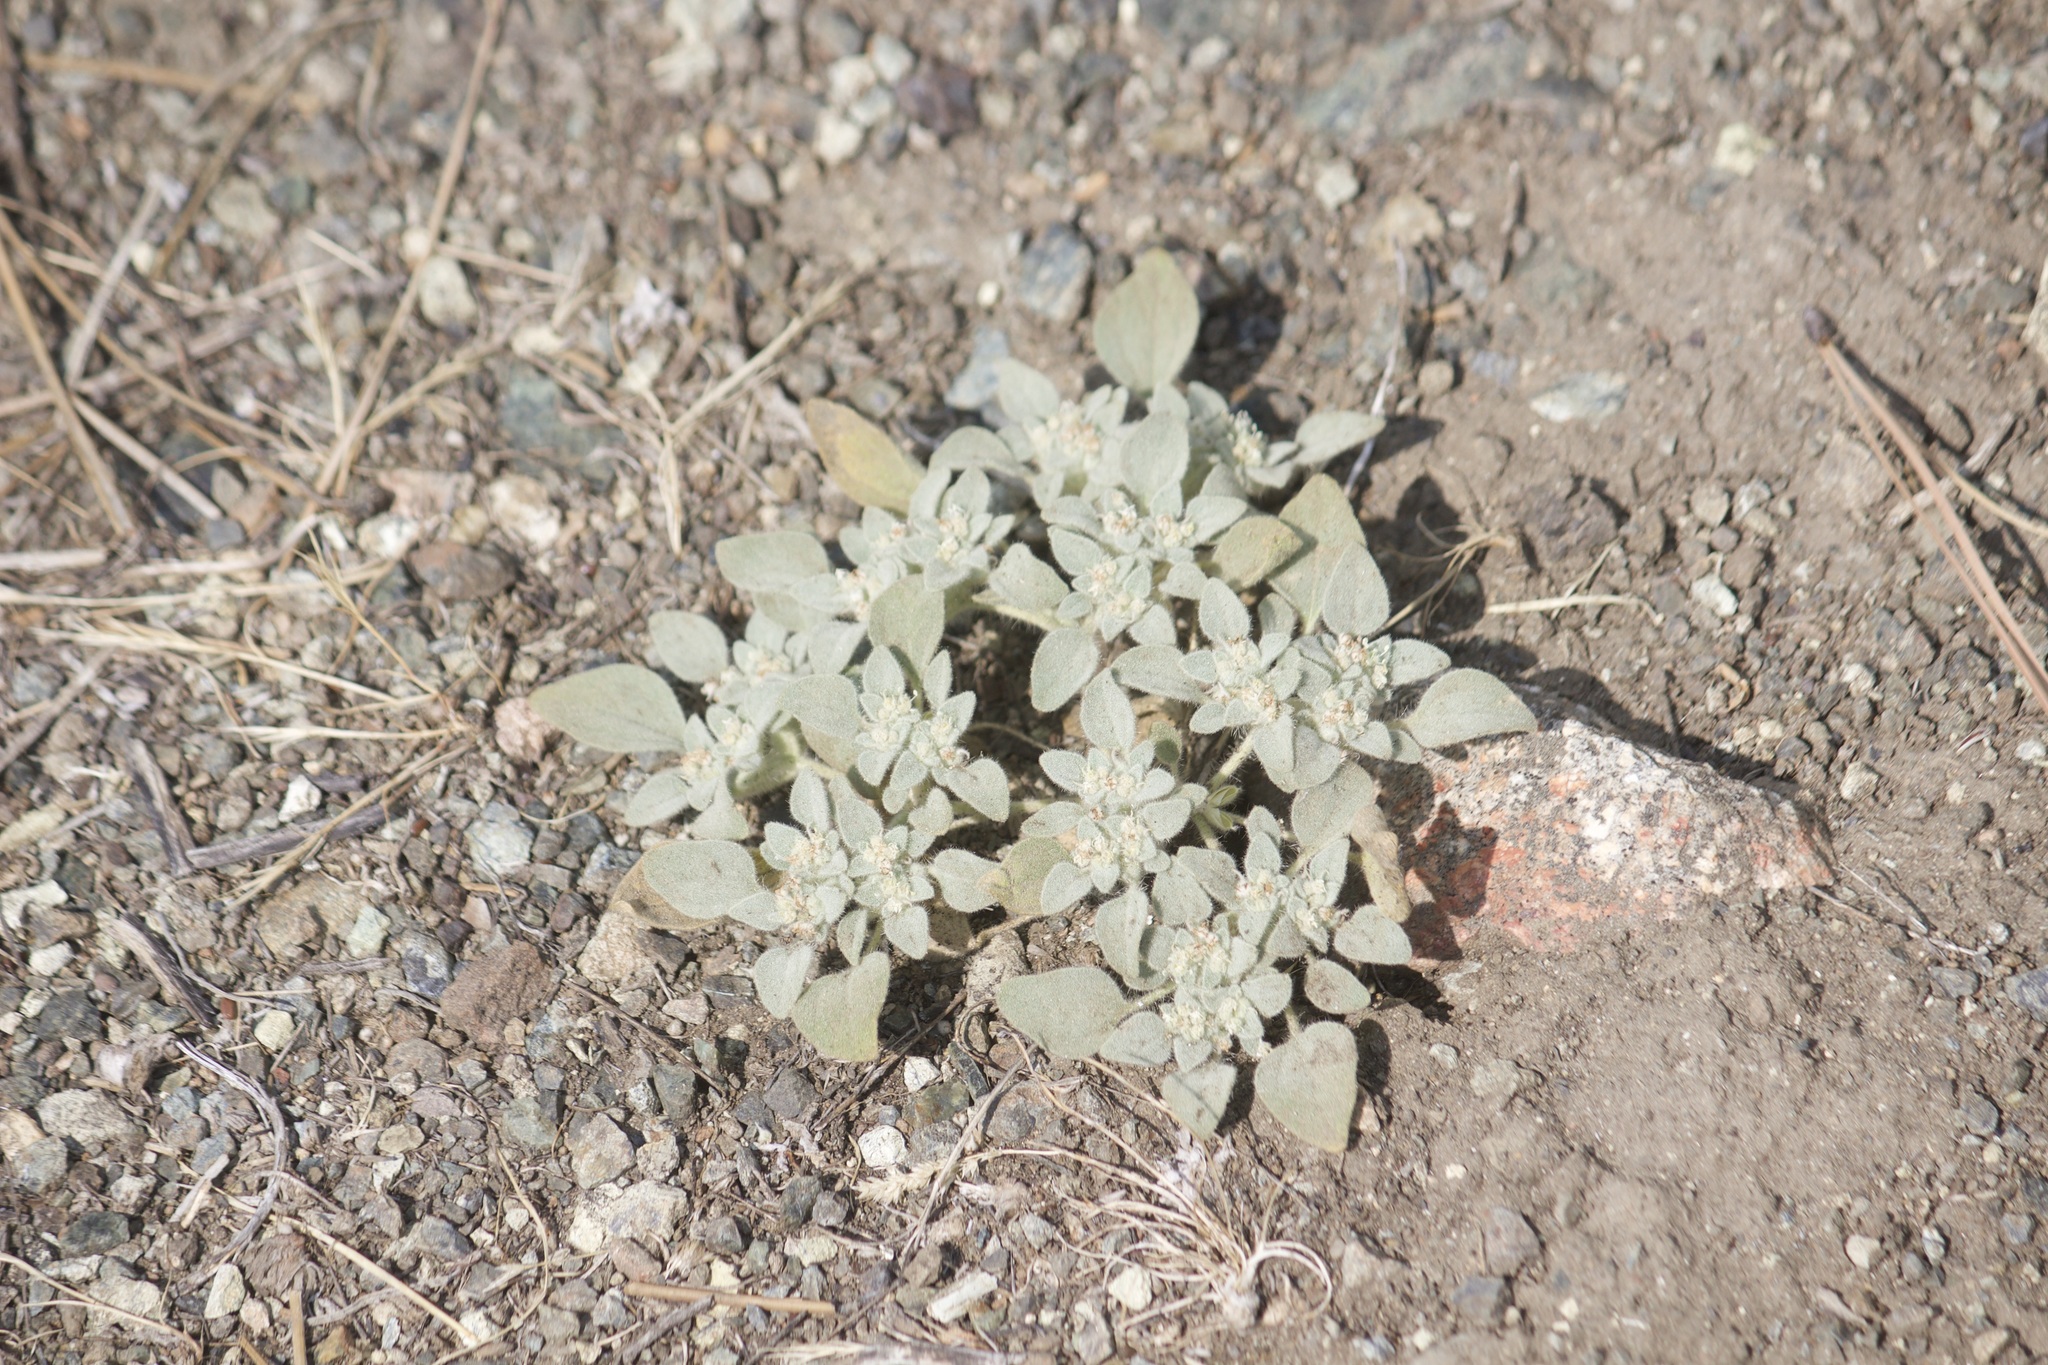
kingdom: Plantae
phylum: Tracheophyta
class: Magnoliopsida
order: Malpighiales
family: Euphorbiaceae
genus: Croton
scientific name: Croton setiger
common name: Dove weed
